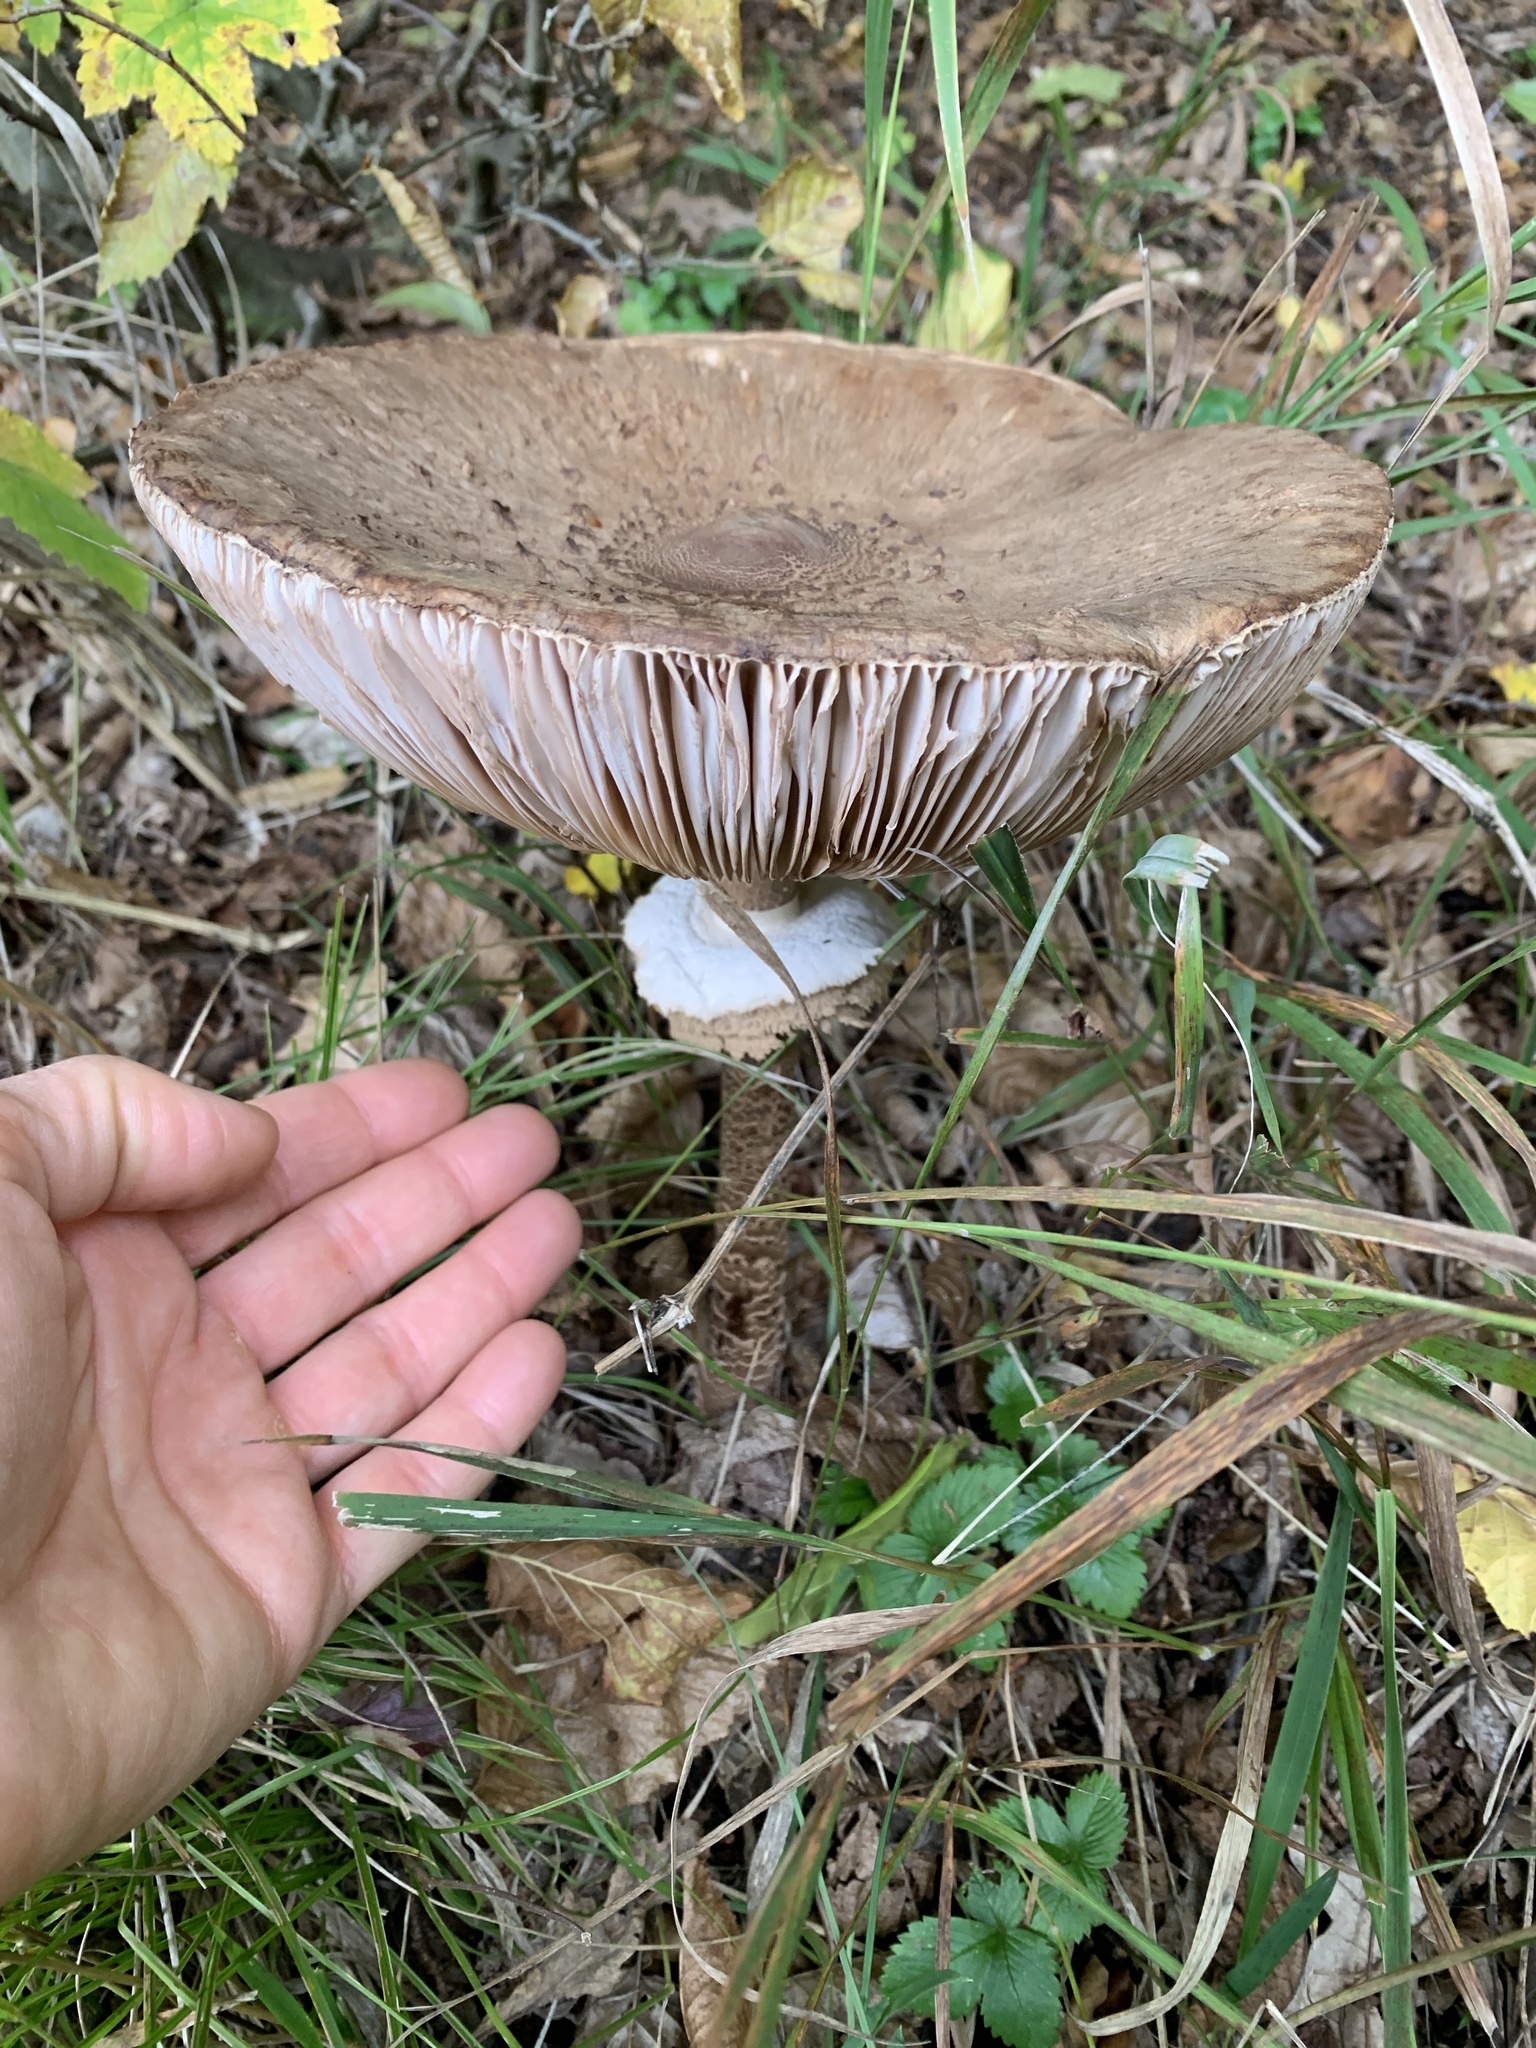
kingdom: Fungi
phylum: Basidiomycota
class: Agaricomycetes
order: Agaricales
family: Agaricaceae
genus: Macrolepiota
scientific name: Macrolepiota procera
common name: Parasol
